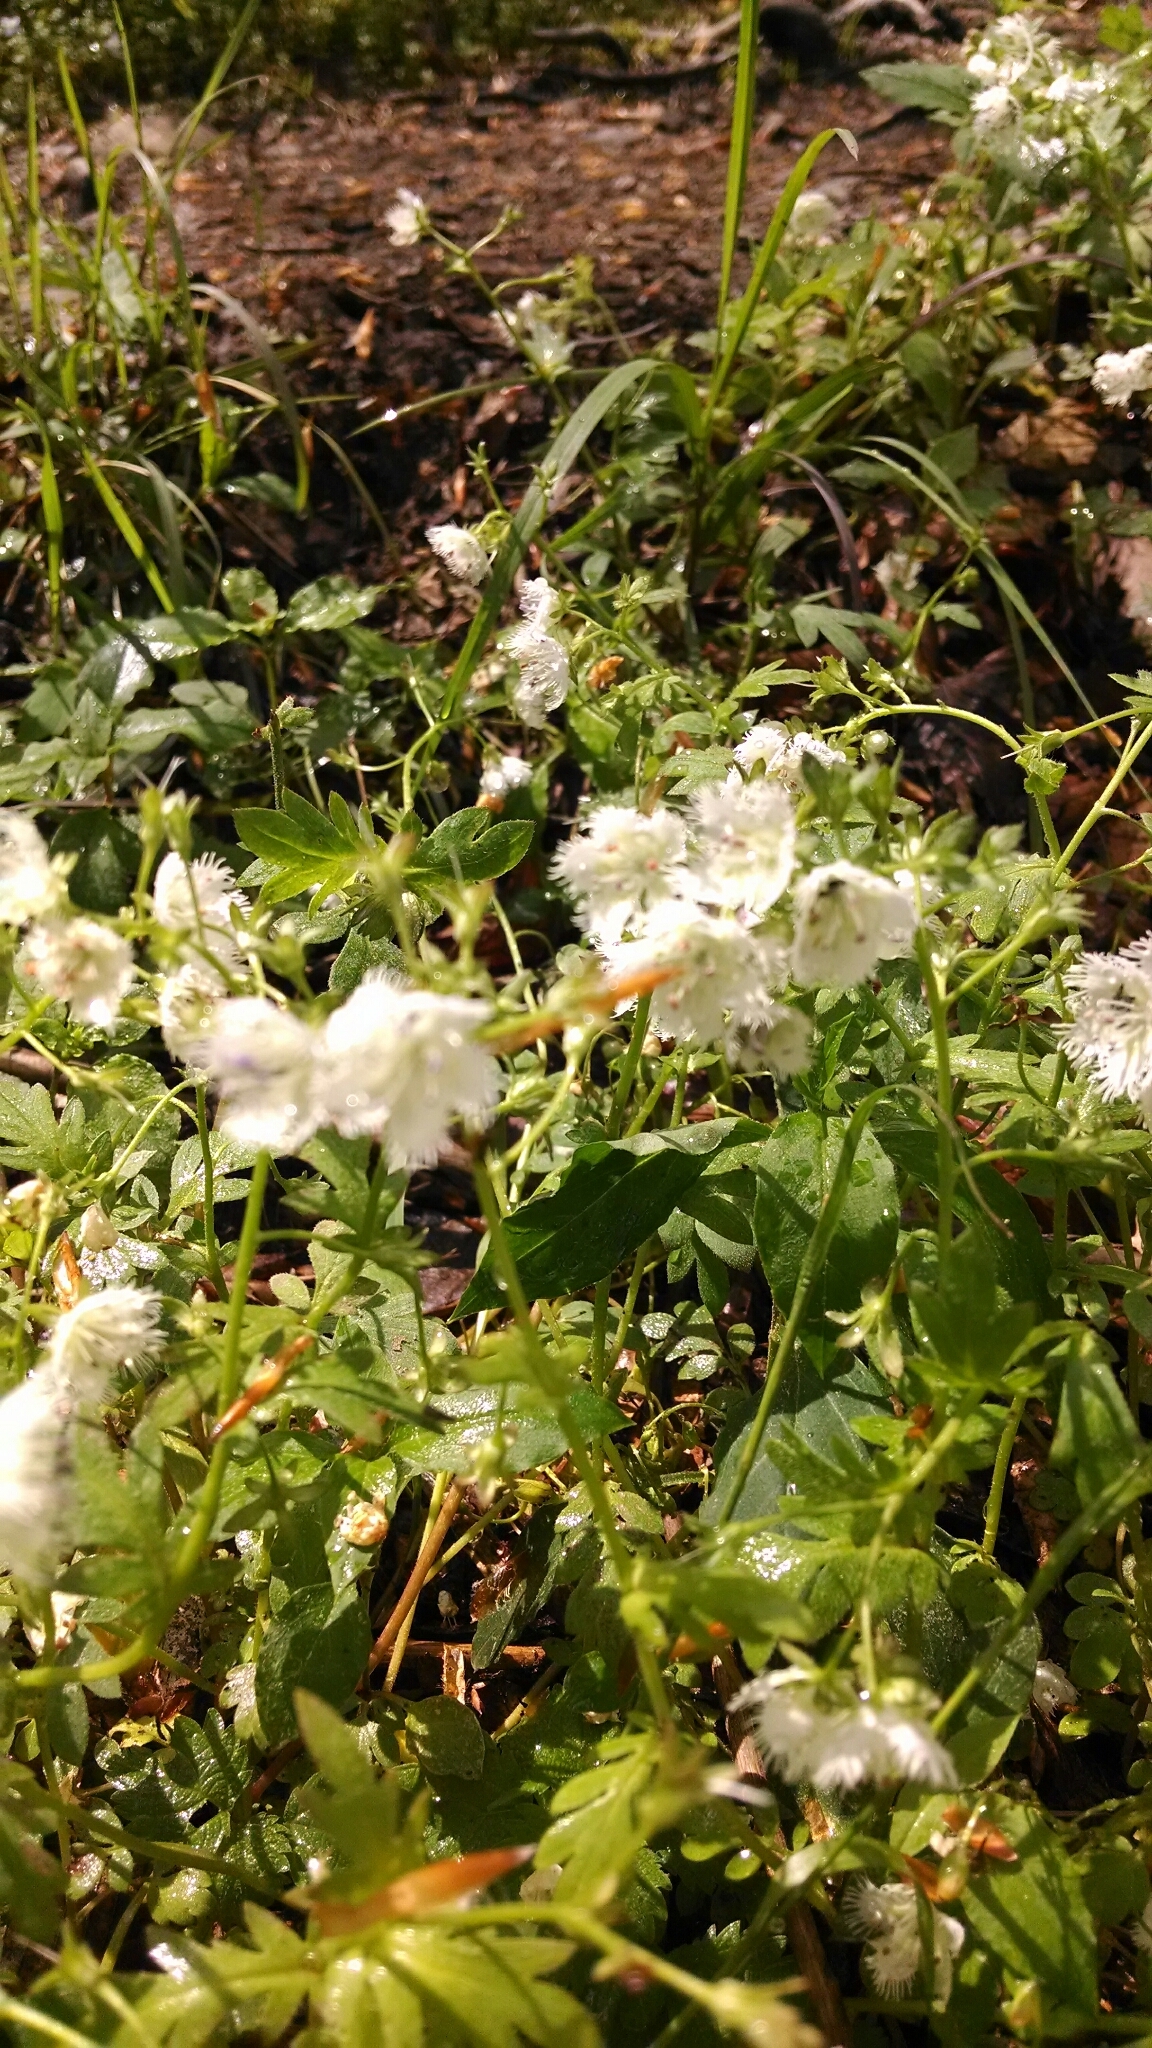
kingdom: Plantae
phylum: Tracheophyta
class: Magnoliopsida
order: Boraginales
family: Hydrophyllaceae
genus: Phacelia
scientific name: Phacelia fimbriata
